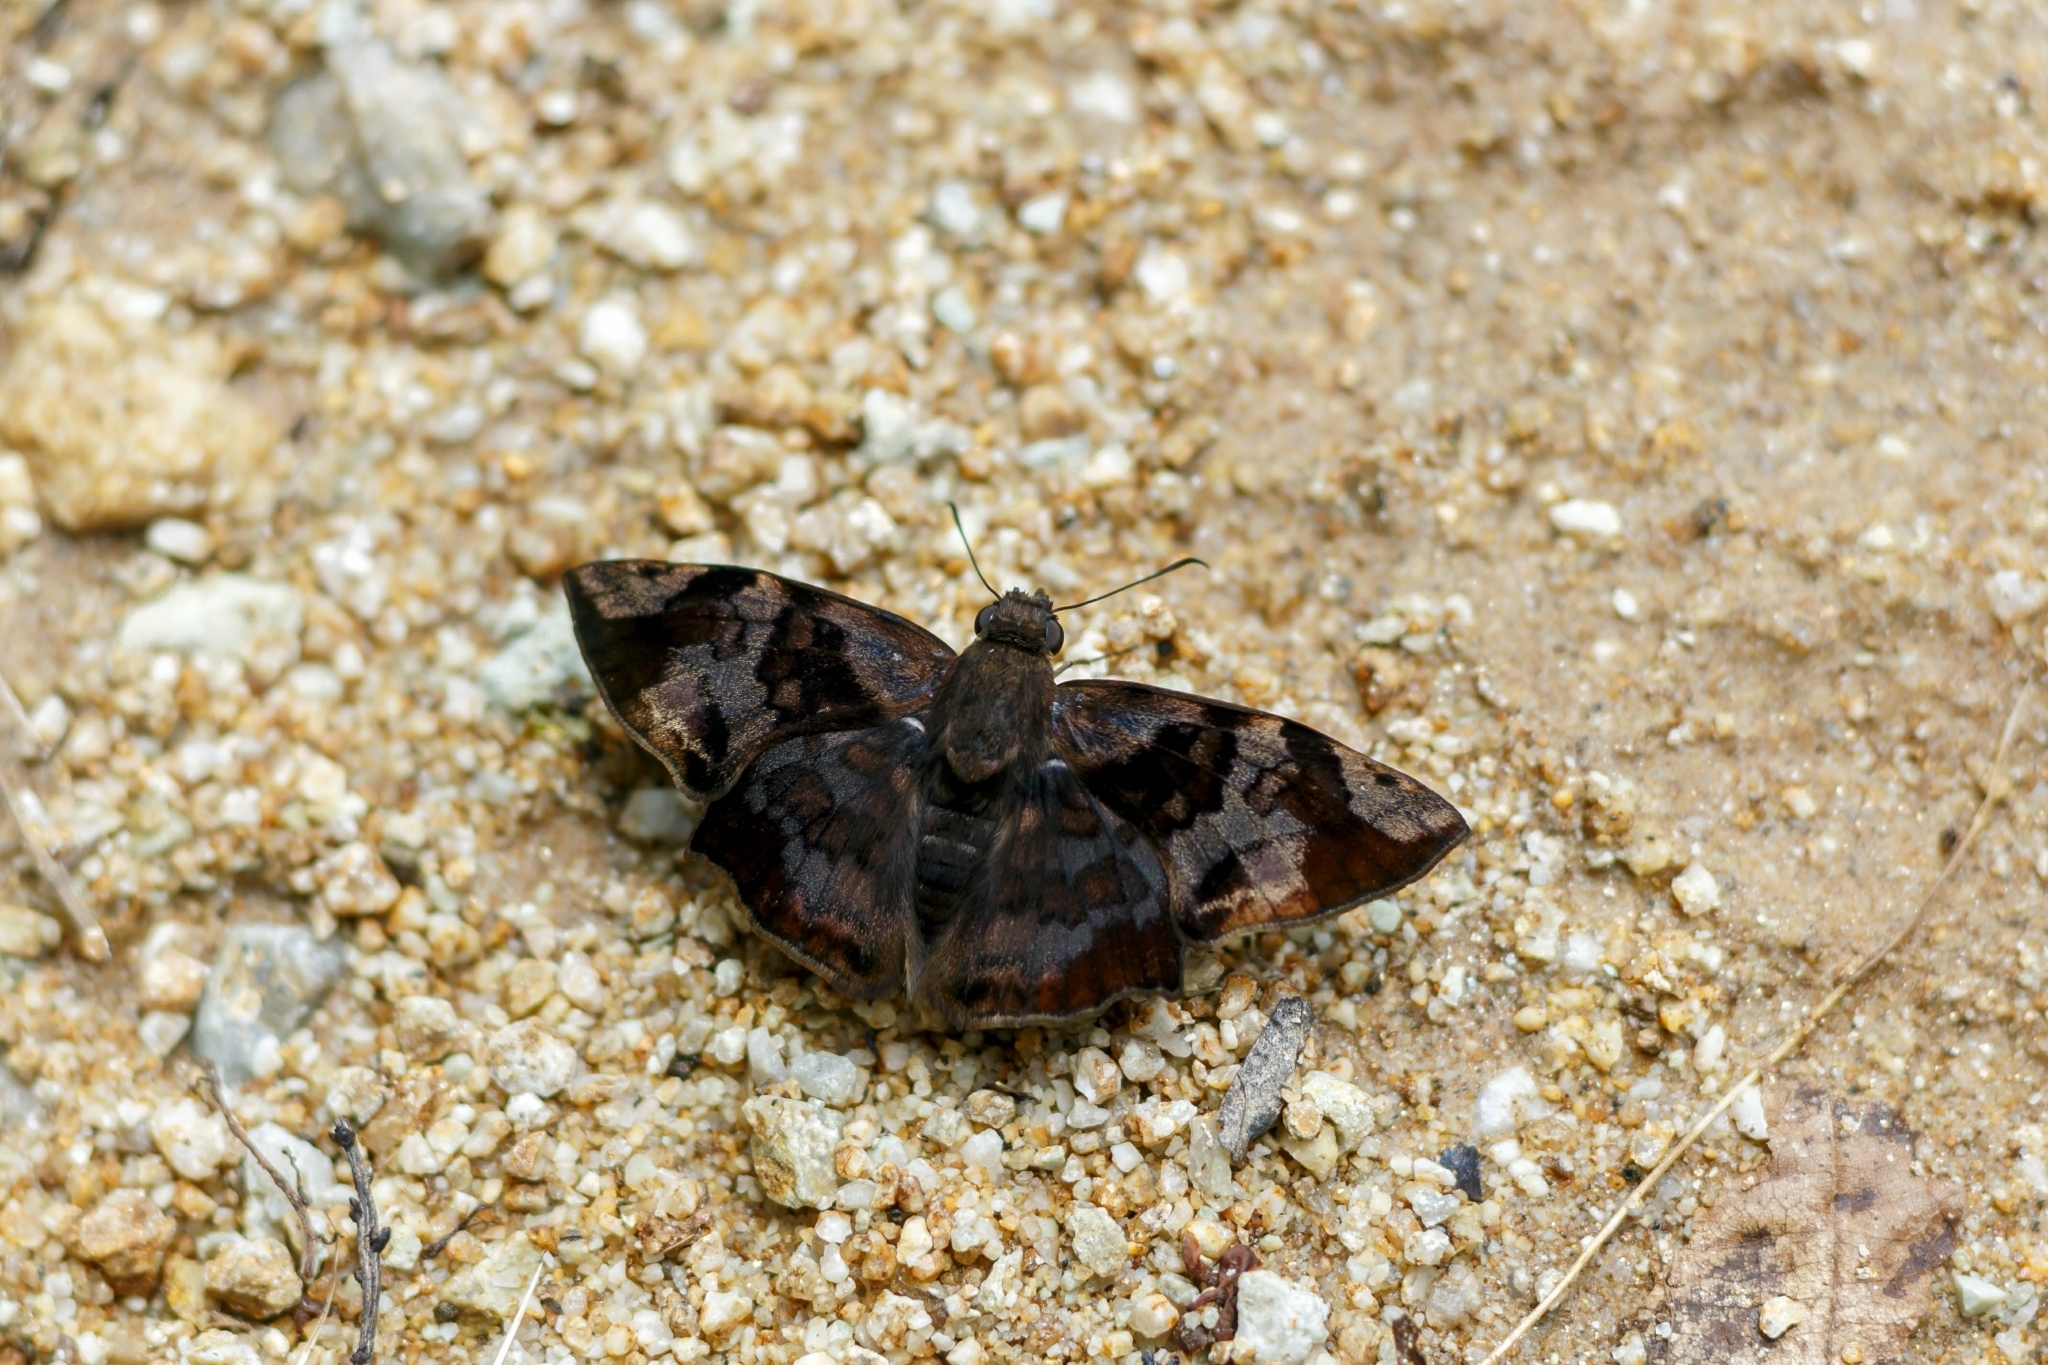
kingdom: Animalia
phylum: Arthropoda
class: Insecta
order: Lepidoptera
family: Hesperiidae
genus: Antigonus
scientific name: Antigonus nearchus
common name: Death-mask spurwing
